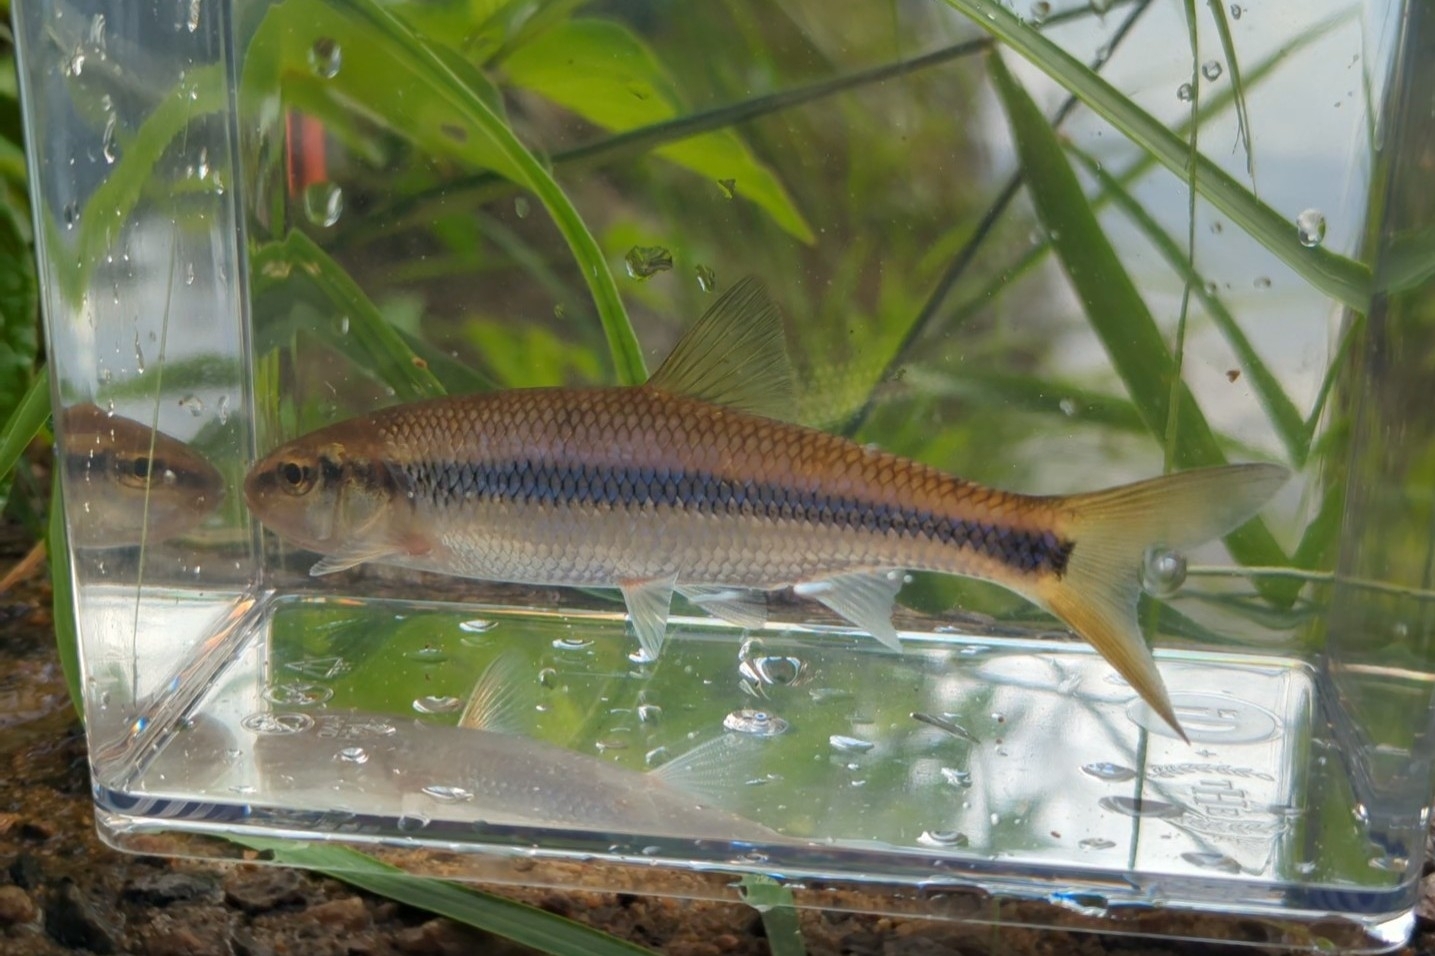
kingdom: Animalia
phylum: Chordata
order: Cypriniformes
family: Cyprinidae
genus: Semotilus
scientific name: Semotilus corporalis
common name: Fallfish
